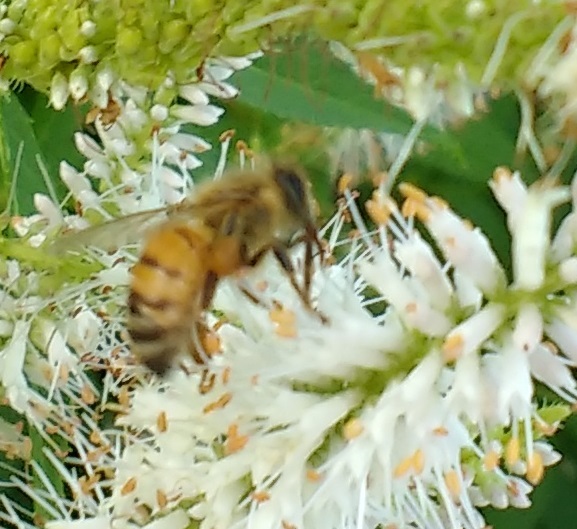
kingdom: Animalia
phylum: Arthropoda
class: Insecta
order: Hymenoptera
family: Apidae
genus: Apis
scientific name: Apis mellifera
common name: Honey bee
